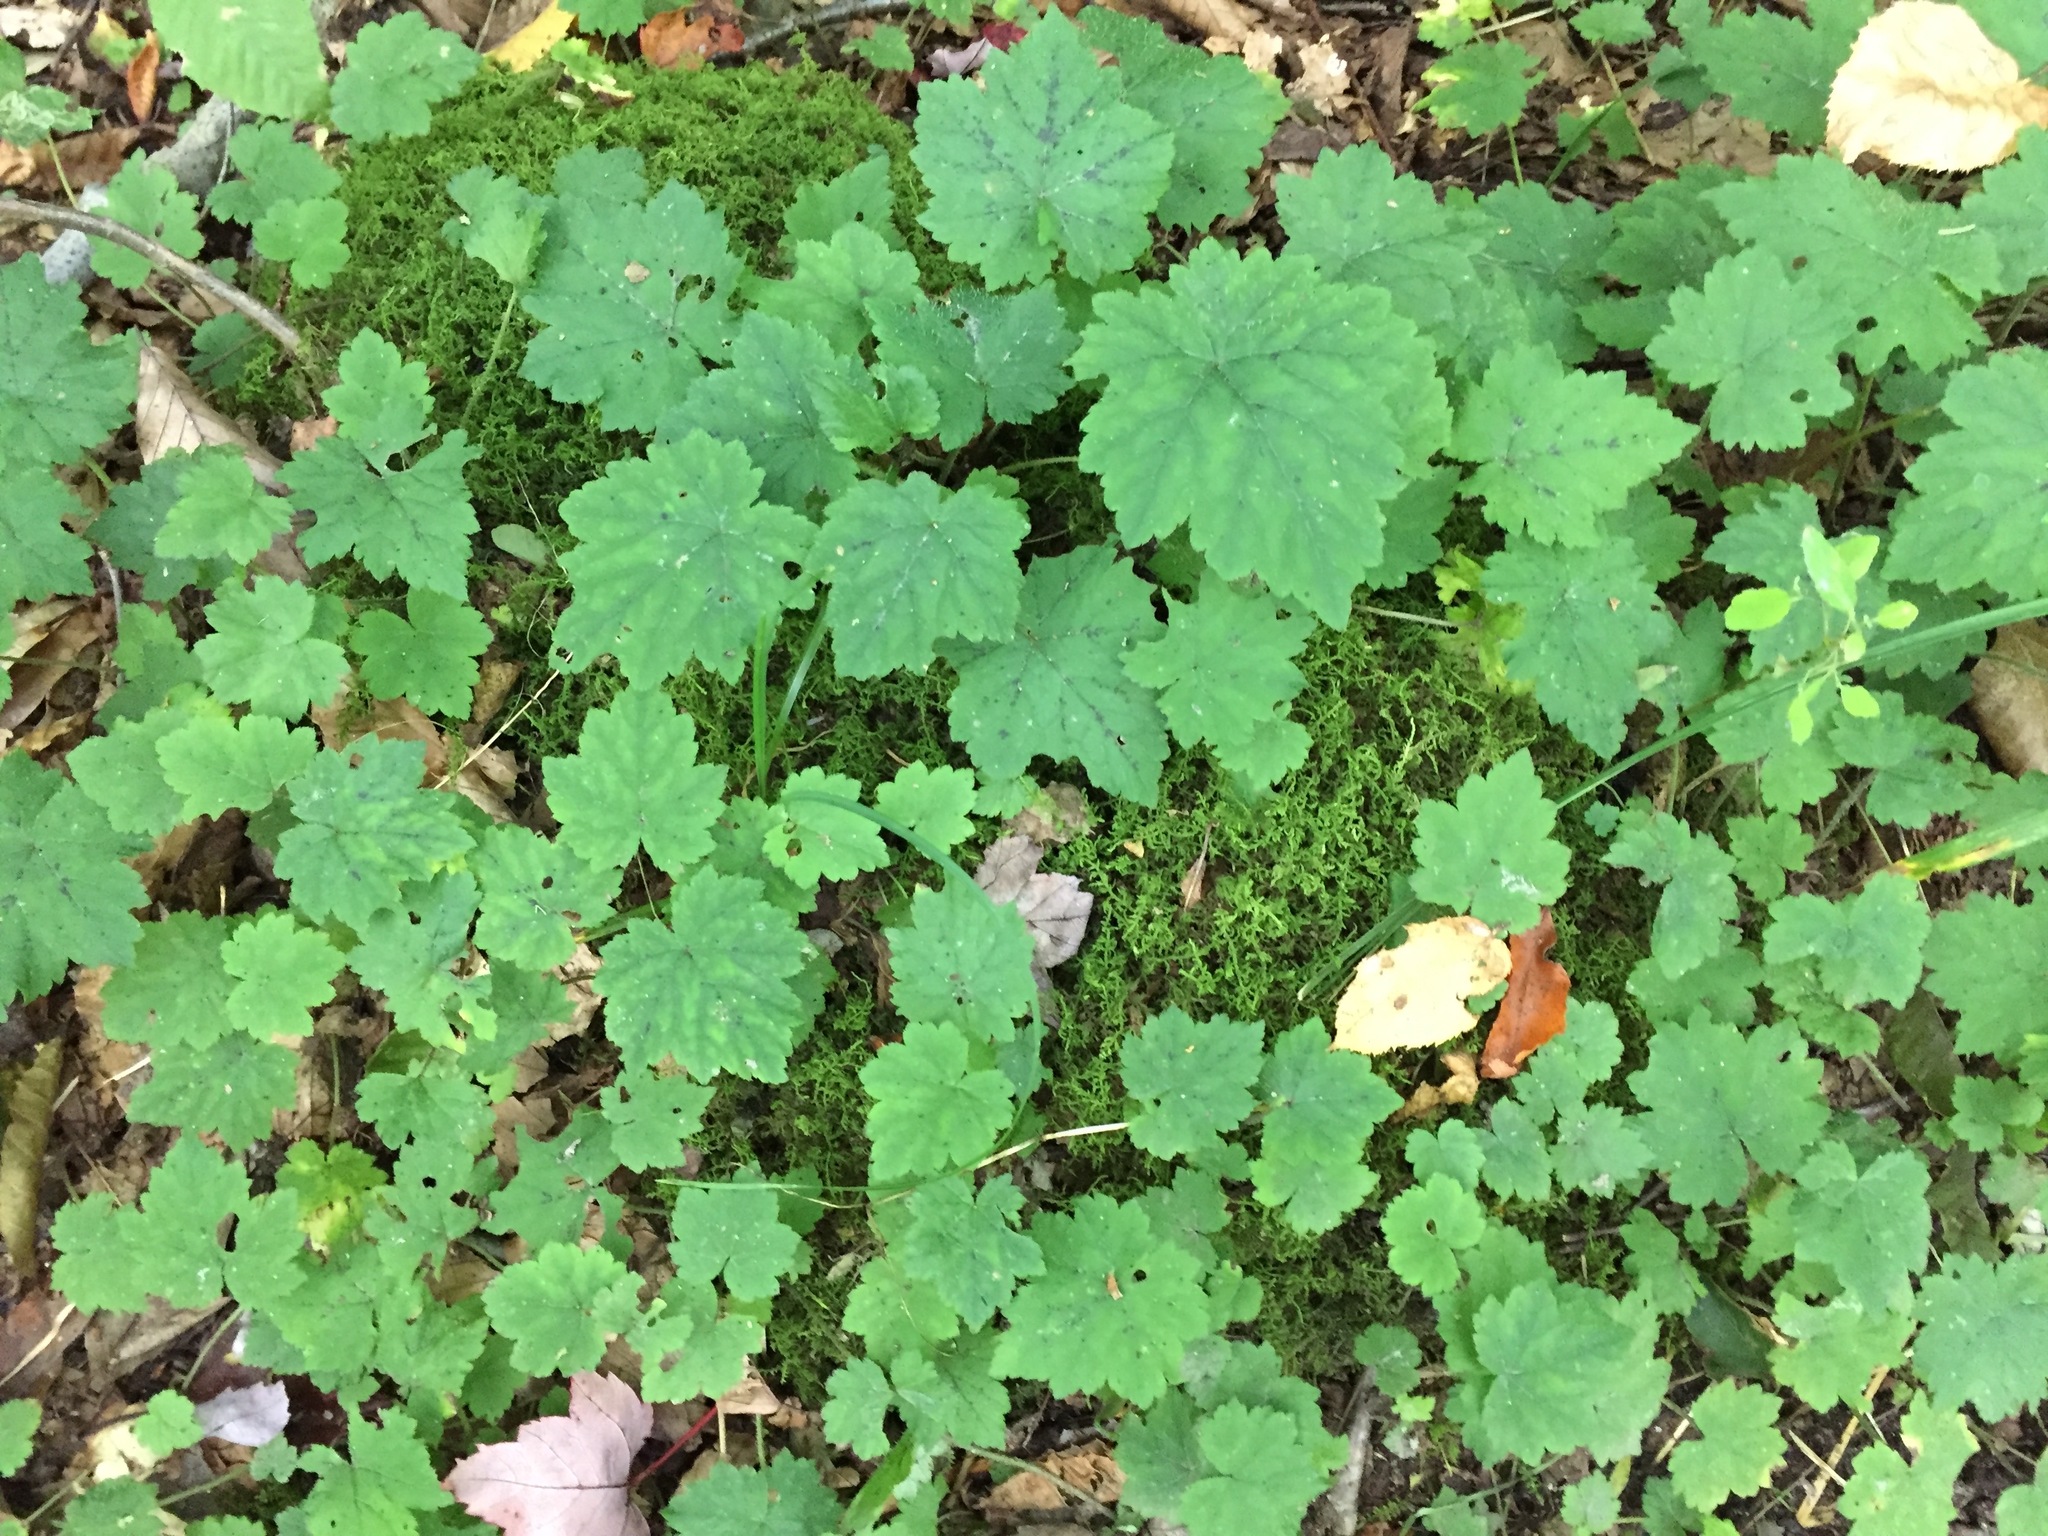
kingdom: Plantae
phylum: Tracheophyta
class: Magnoliopsida
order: Saxifragales
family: Saxifragaceae
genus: Tiarella
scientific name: Tiarella stolonifera
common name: Stoloniferous foamflower
